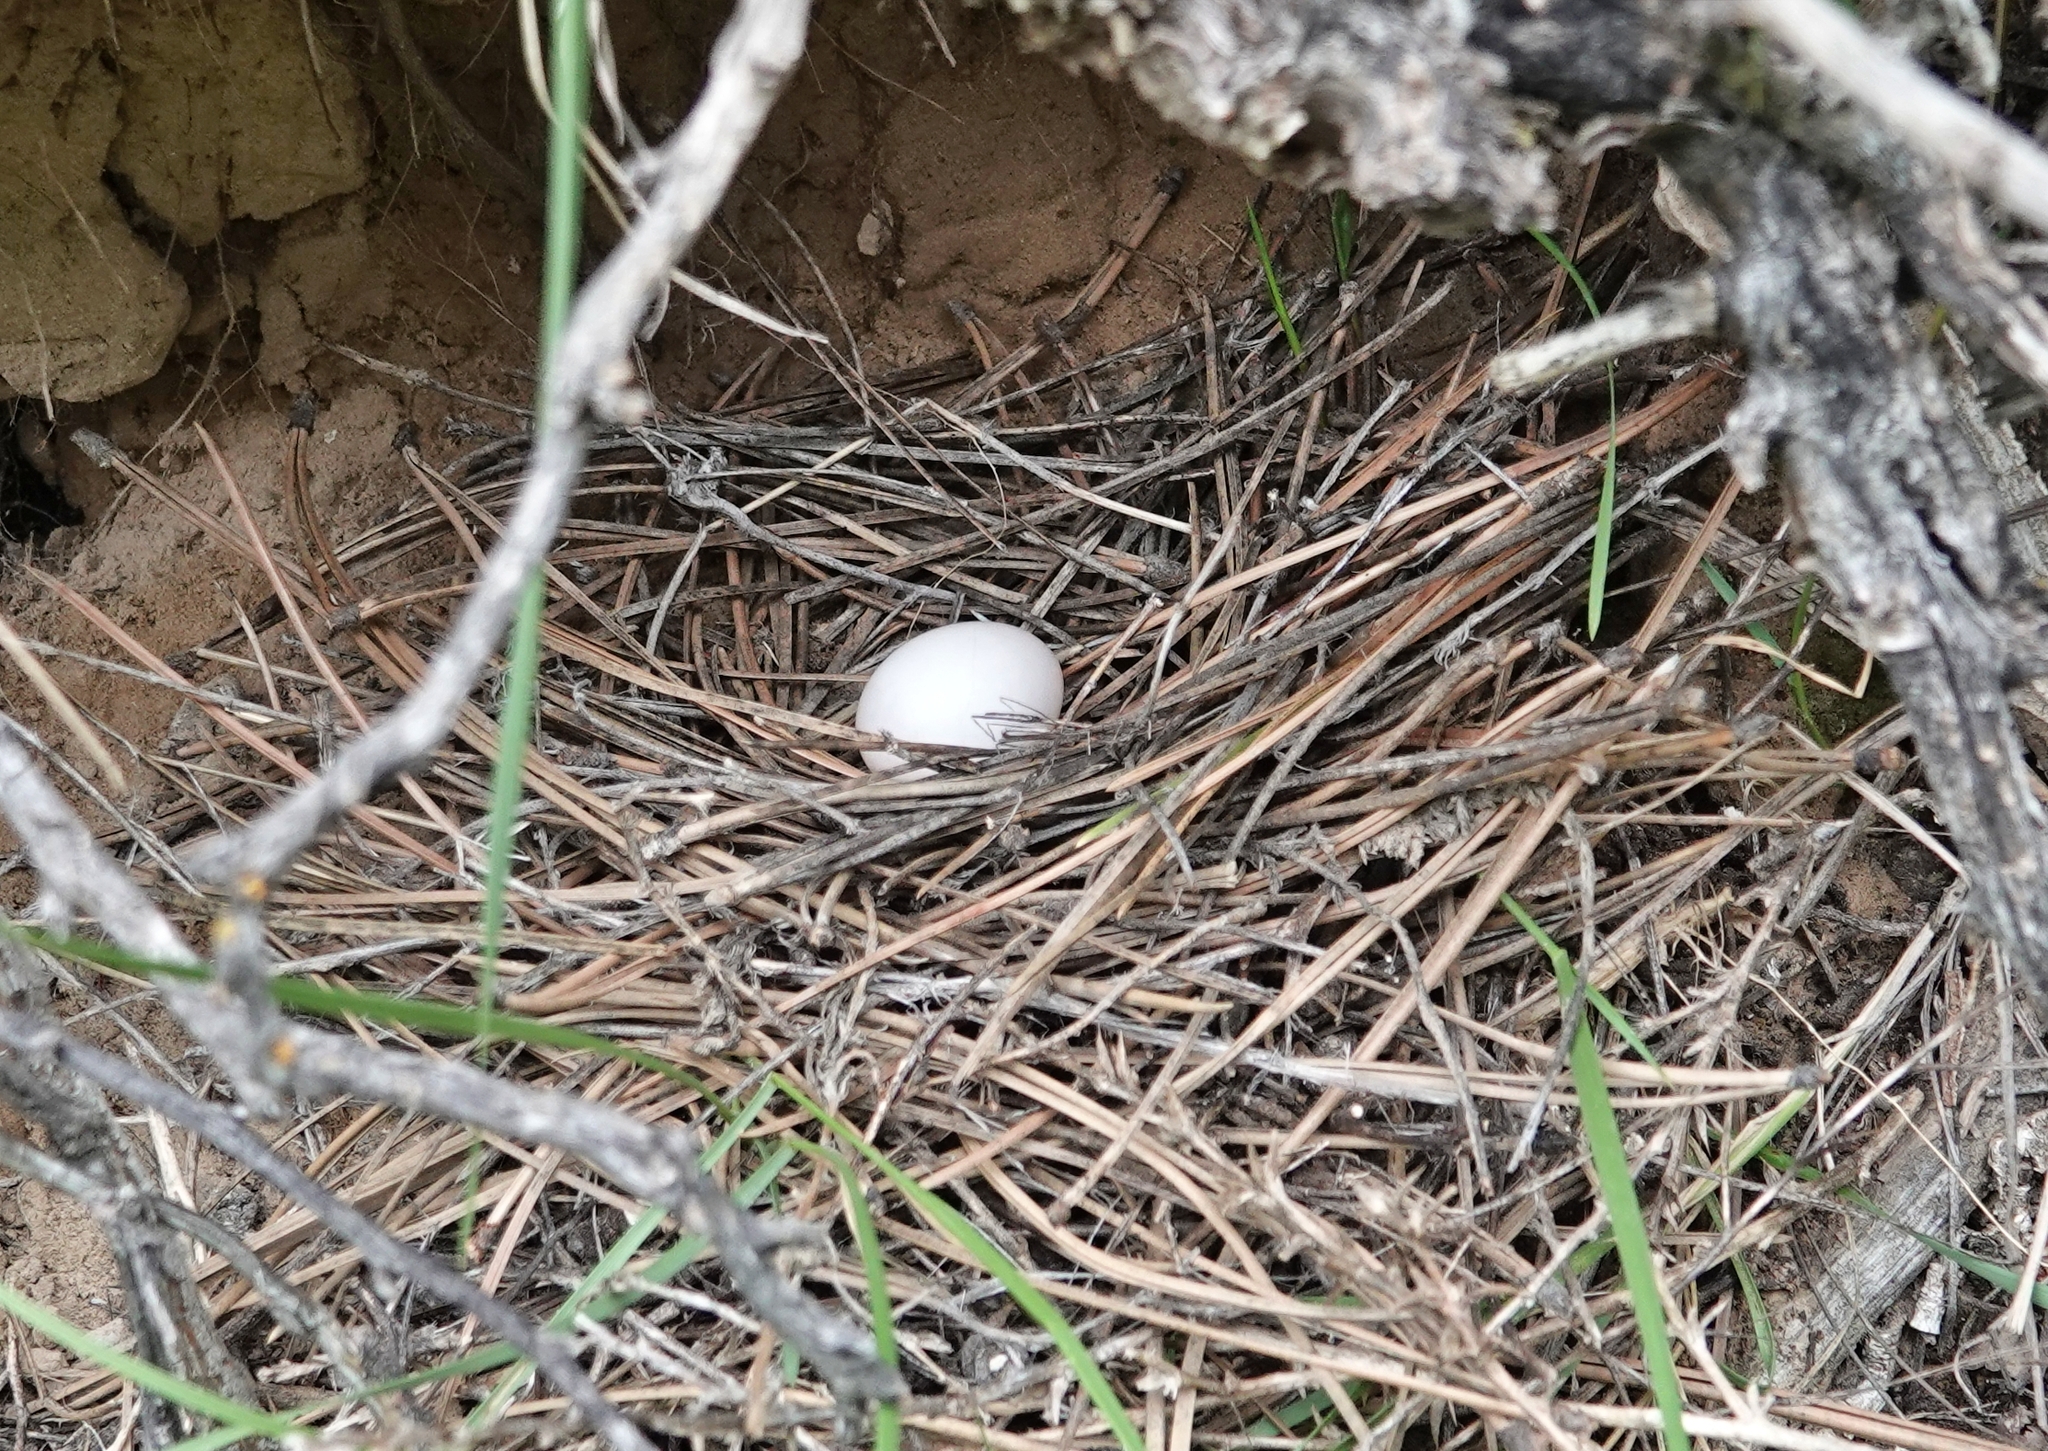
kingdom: Animalia
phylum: Chordata
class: Aves
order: Columbiformes
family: Columbidae
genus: Zenaida
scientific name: Zenaida macroura
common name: Mourning dove
